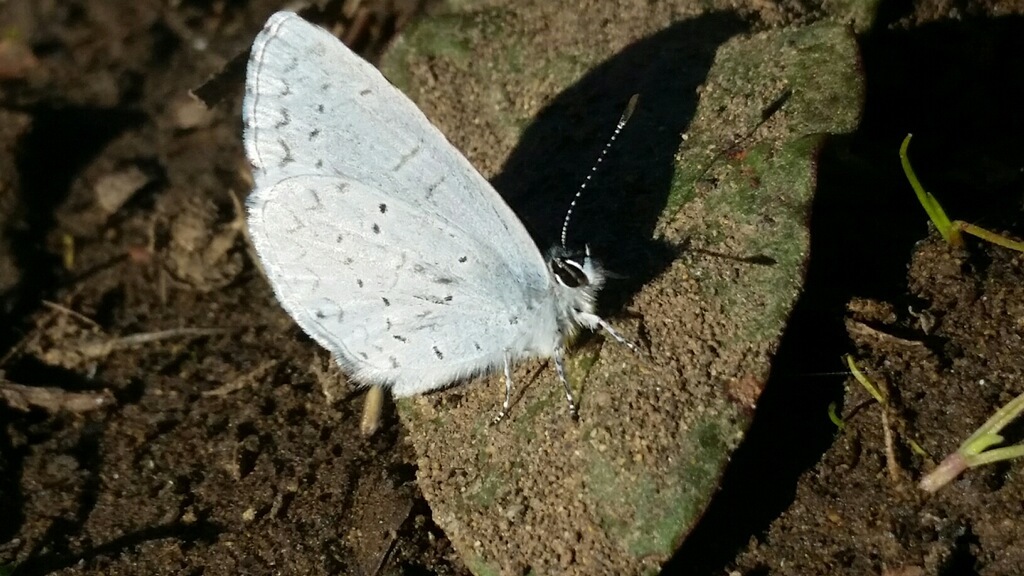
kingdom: Animalia
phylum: Arthropoda
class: Insecta
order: Lepidoptera
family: Lycaenidae
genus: Celastrina
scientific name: Celastrina ladon
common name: Spring azure
